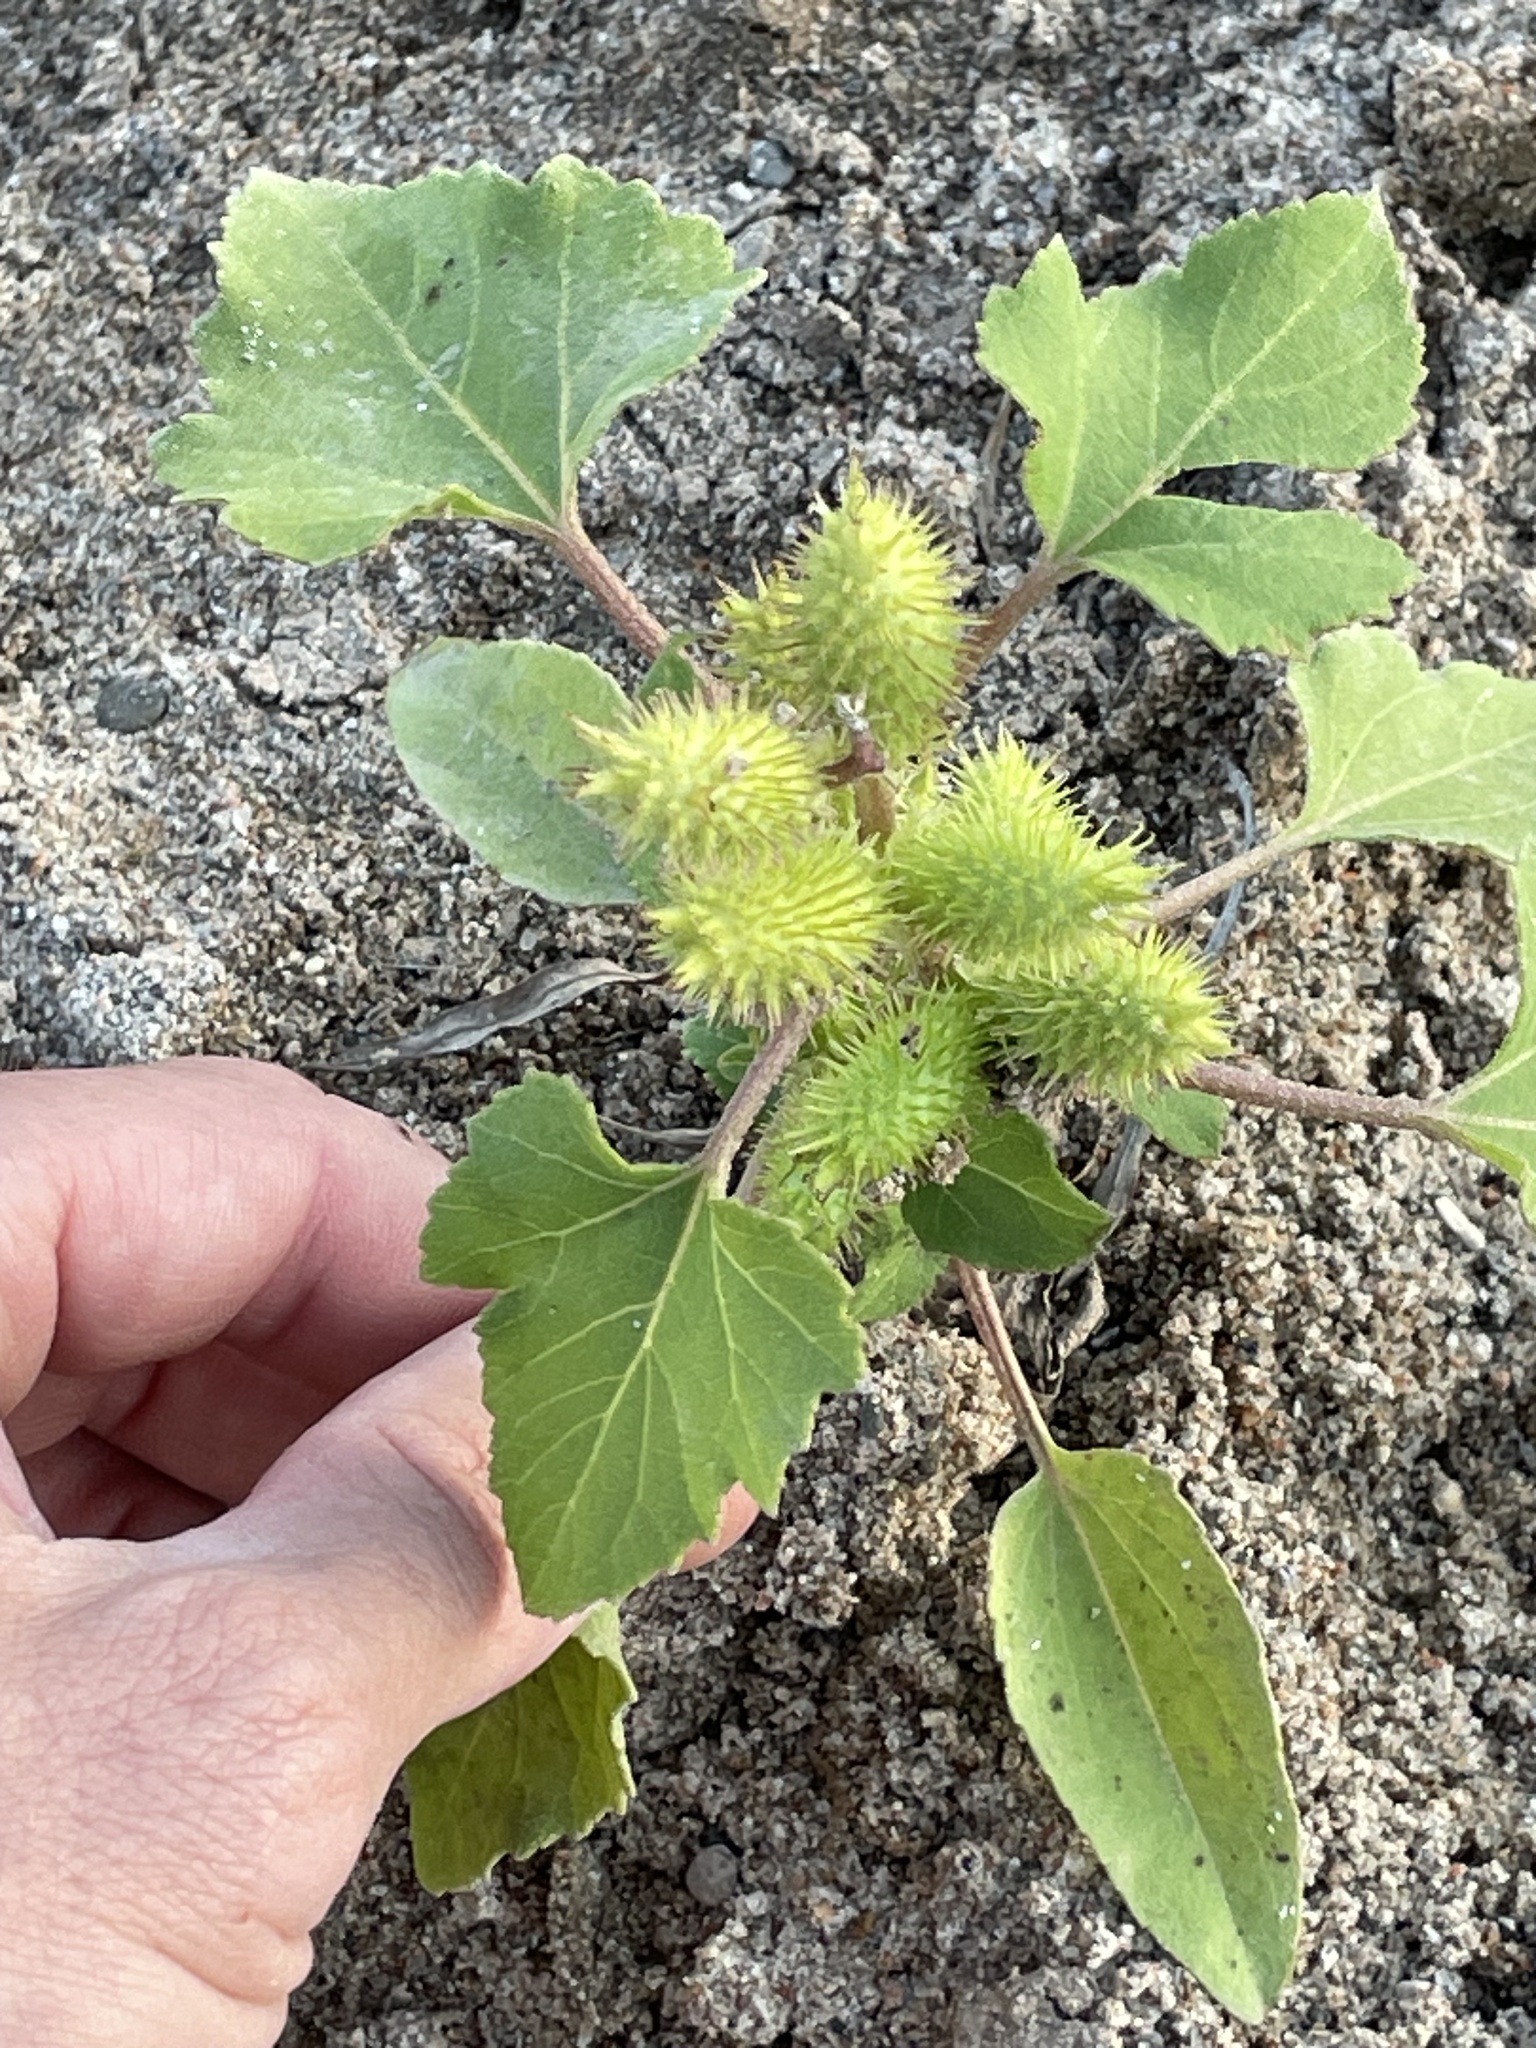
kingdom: Plantae
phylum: Tracheophyta
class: Magnoliopsida
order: Asterales
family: Asteraceae
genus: Xanthium
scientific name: Xanthium strumarium
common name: Rough cocklebur
